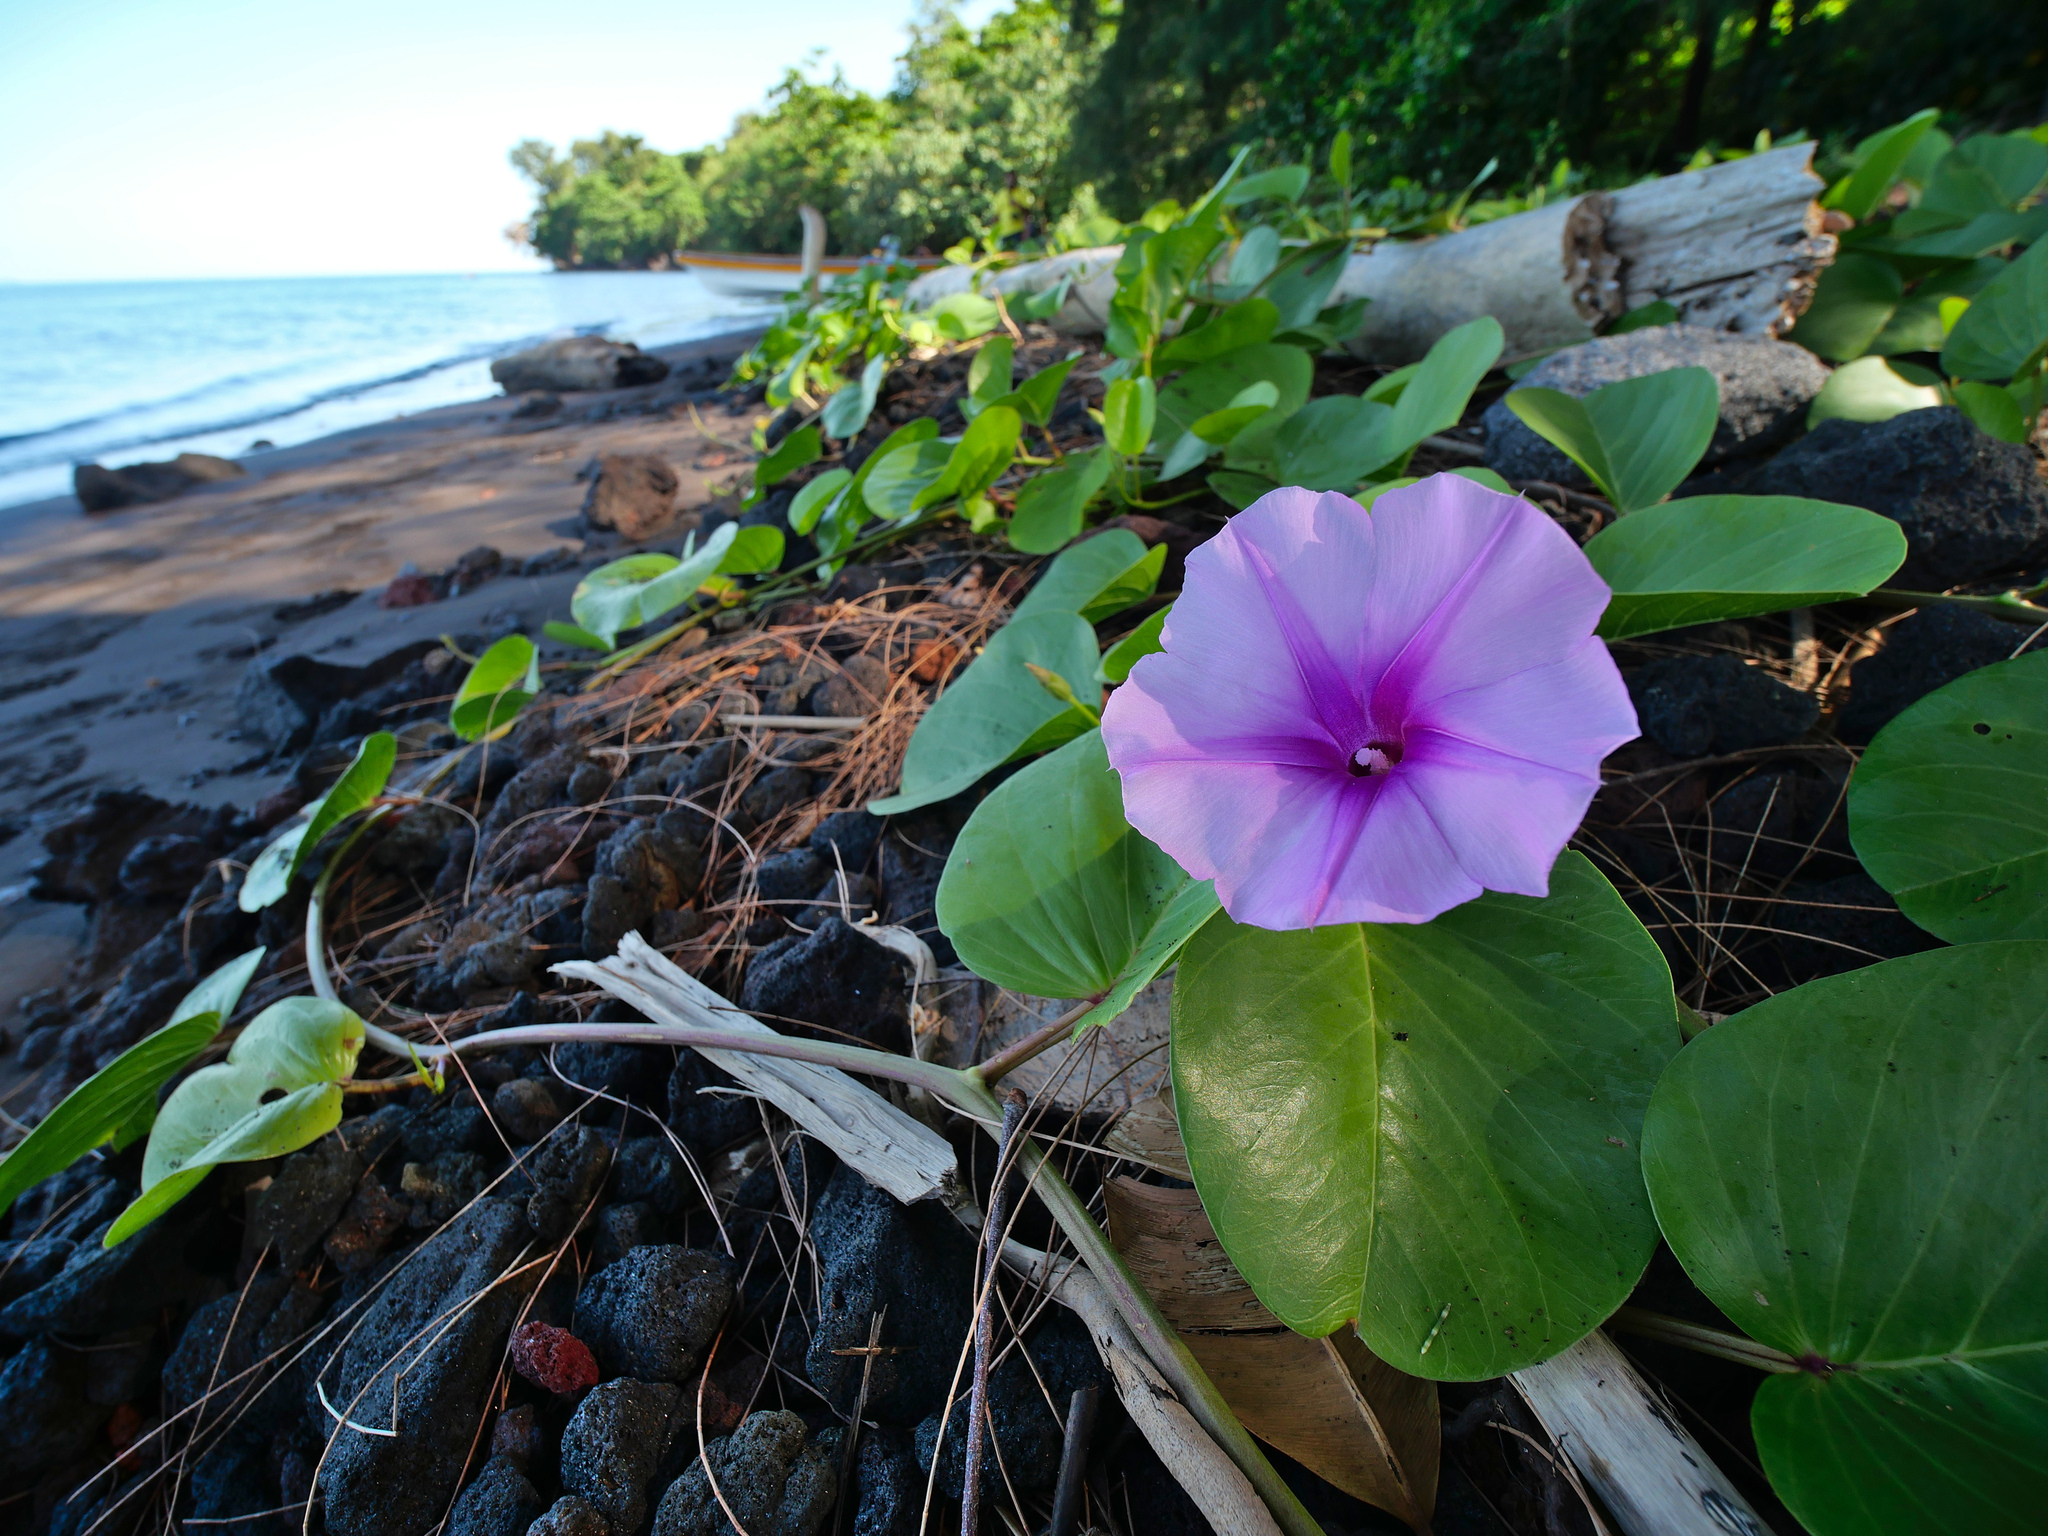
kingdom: Plantae
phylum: Tracheophyta
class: Magnoliopsida
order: Solanales
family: Convolvulaceae
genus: Ipomoea
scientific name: Ipomoea pes-caprae
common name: Beach morning glory
